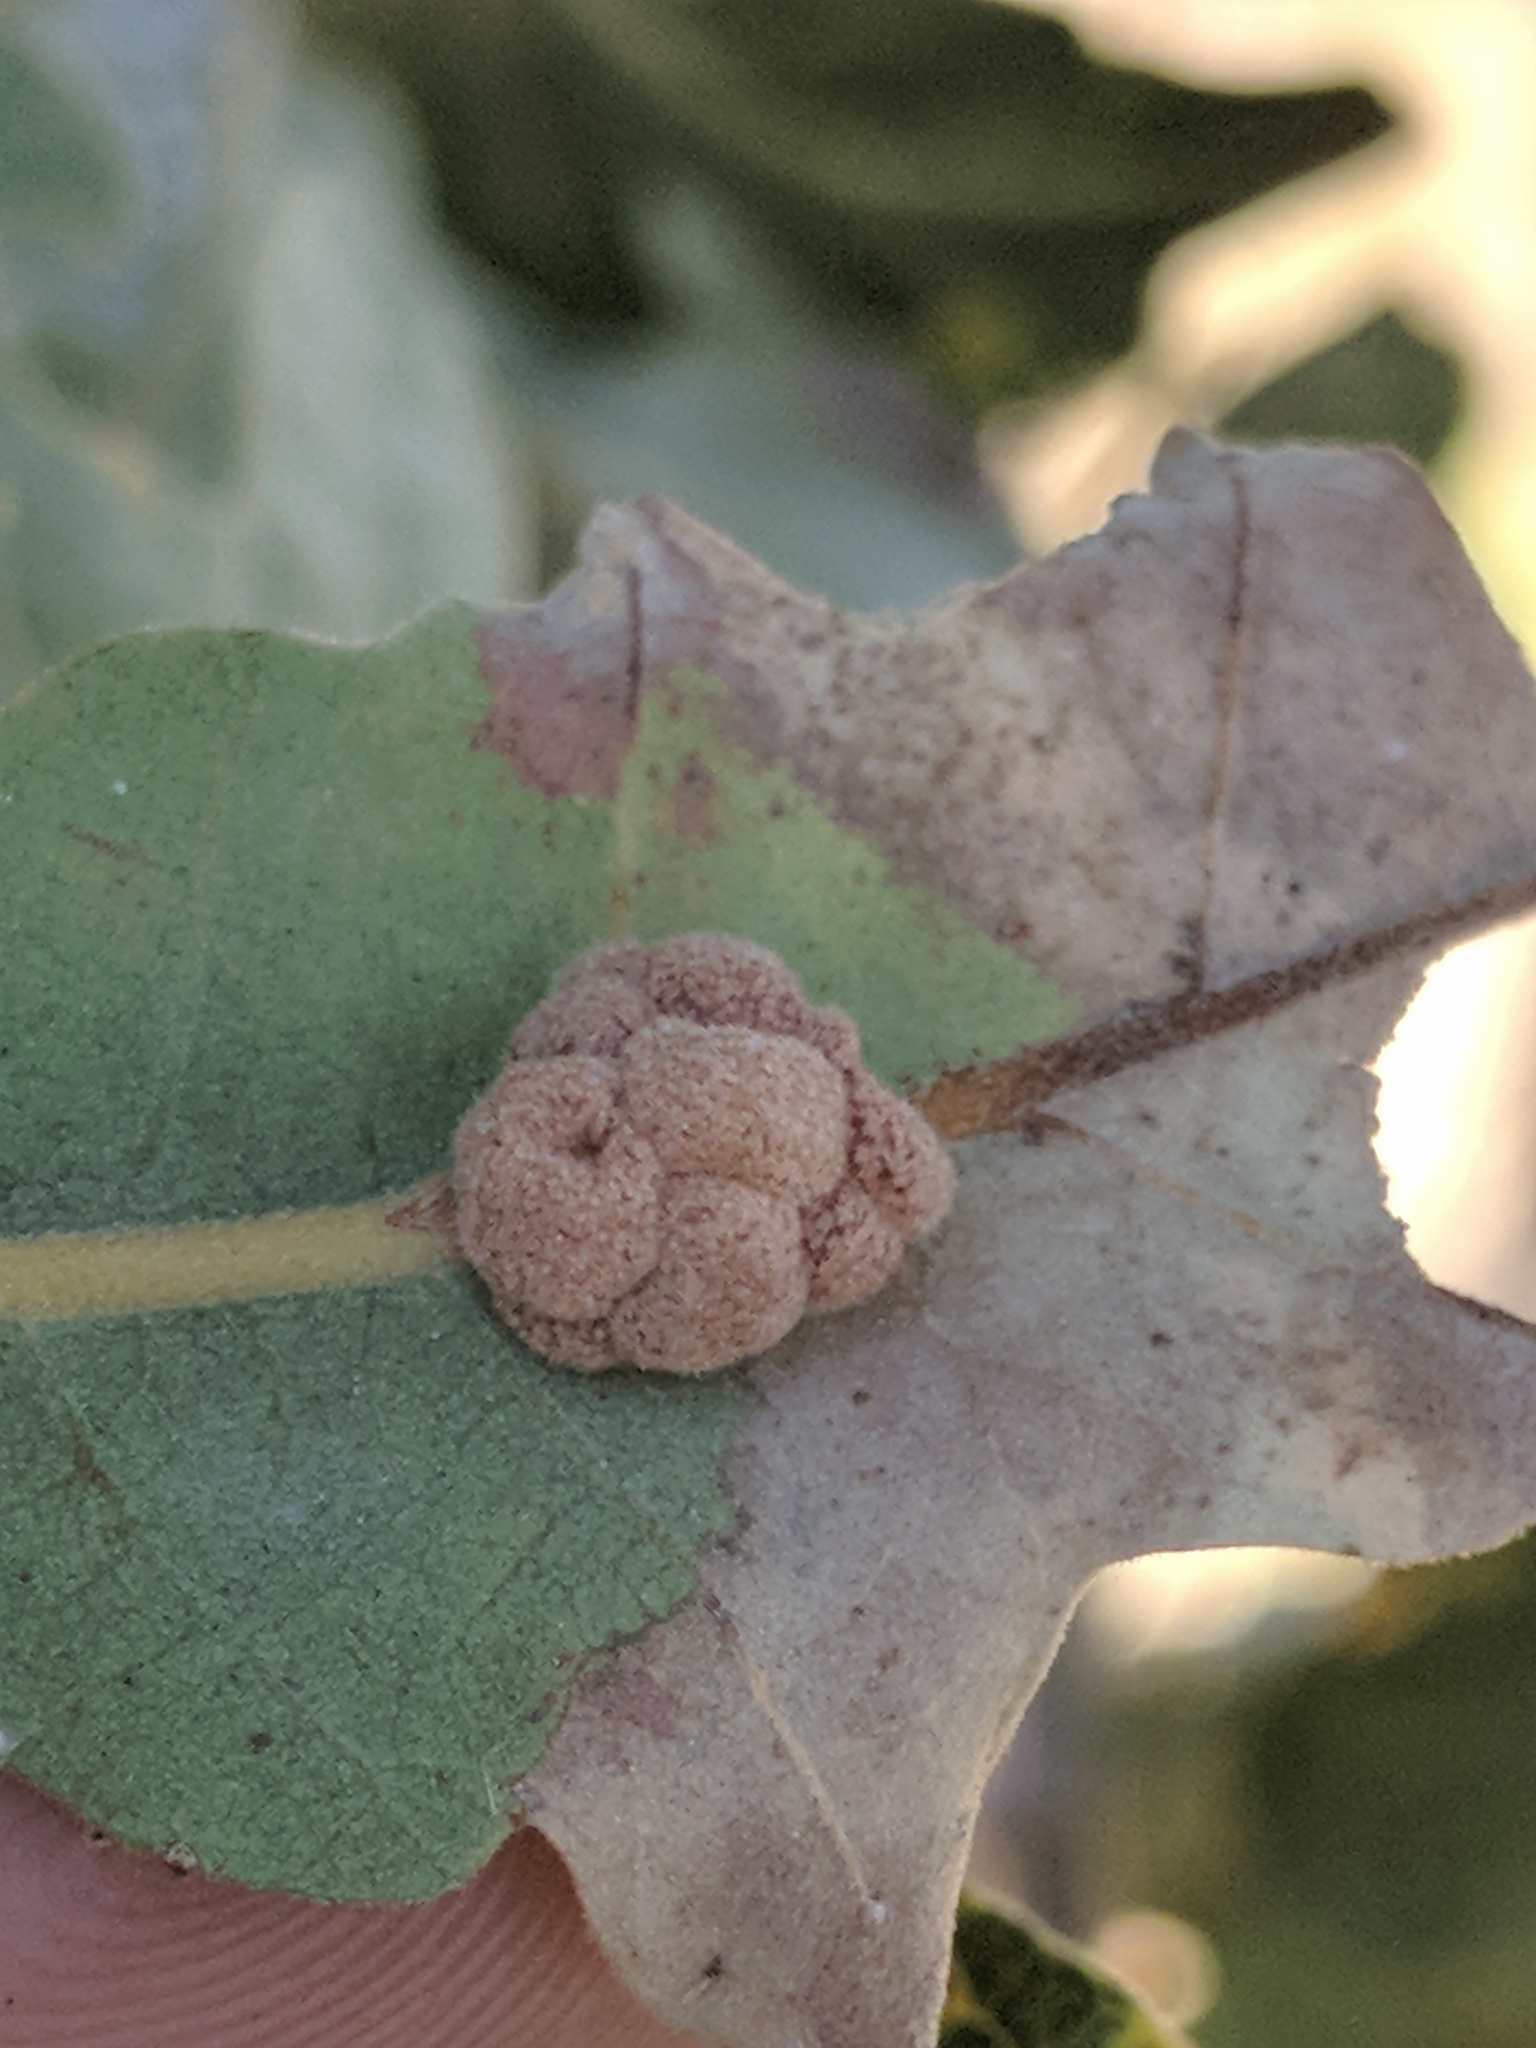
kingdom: Animalia
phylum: Arthropoda
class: Insecta
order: Hymenoptera
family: Cynipidae
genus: Andricus
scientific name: Andricus
